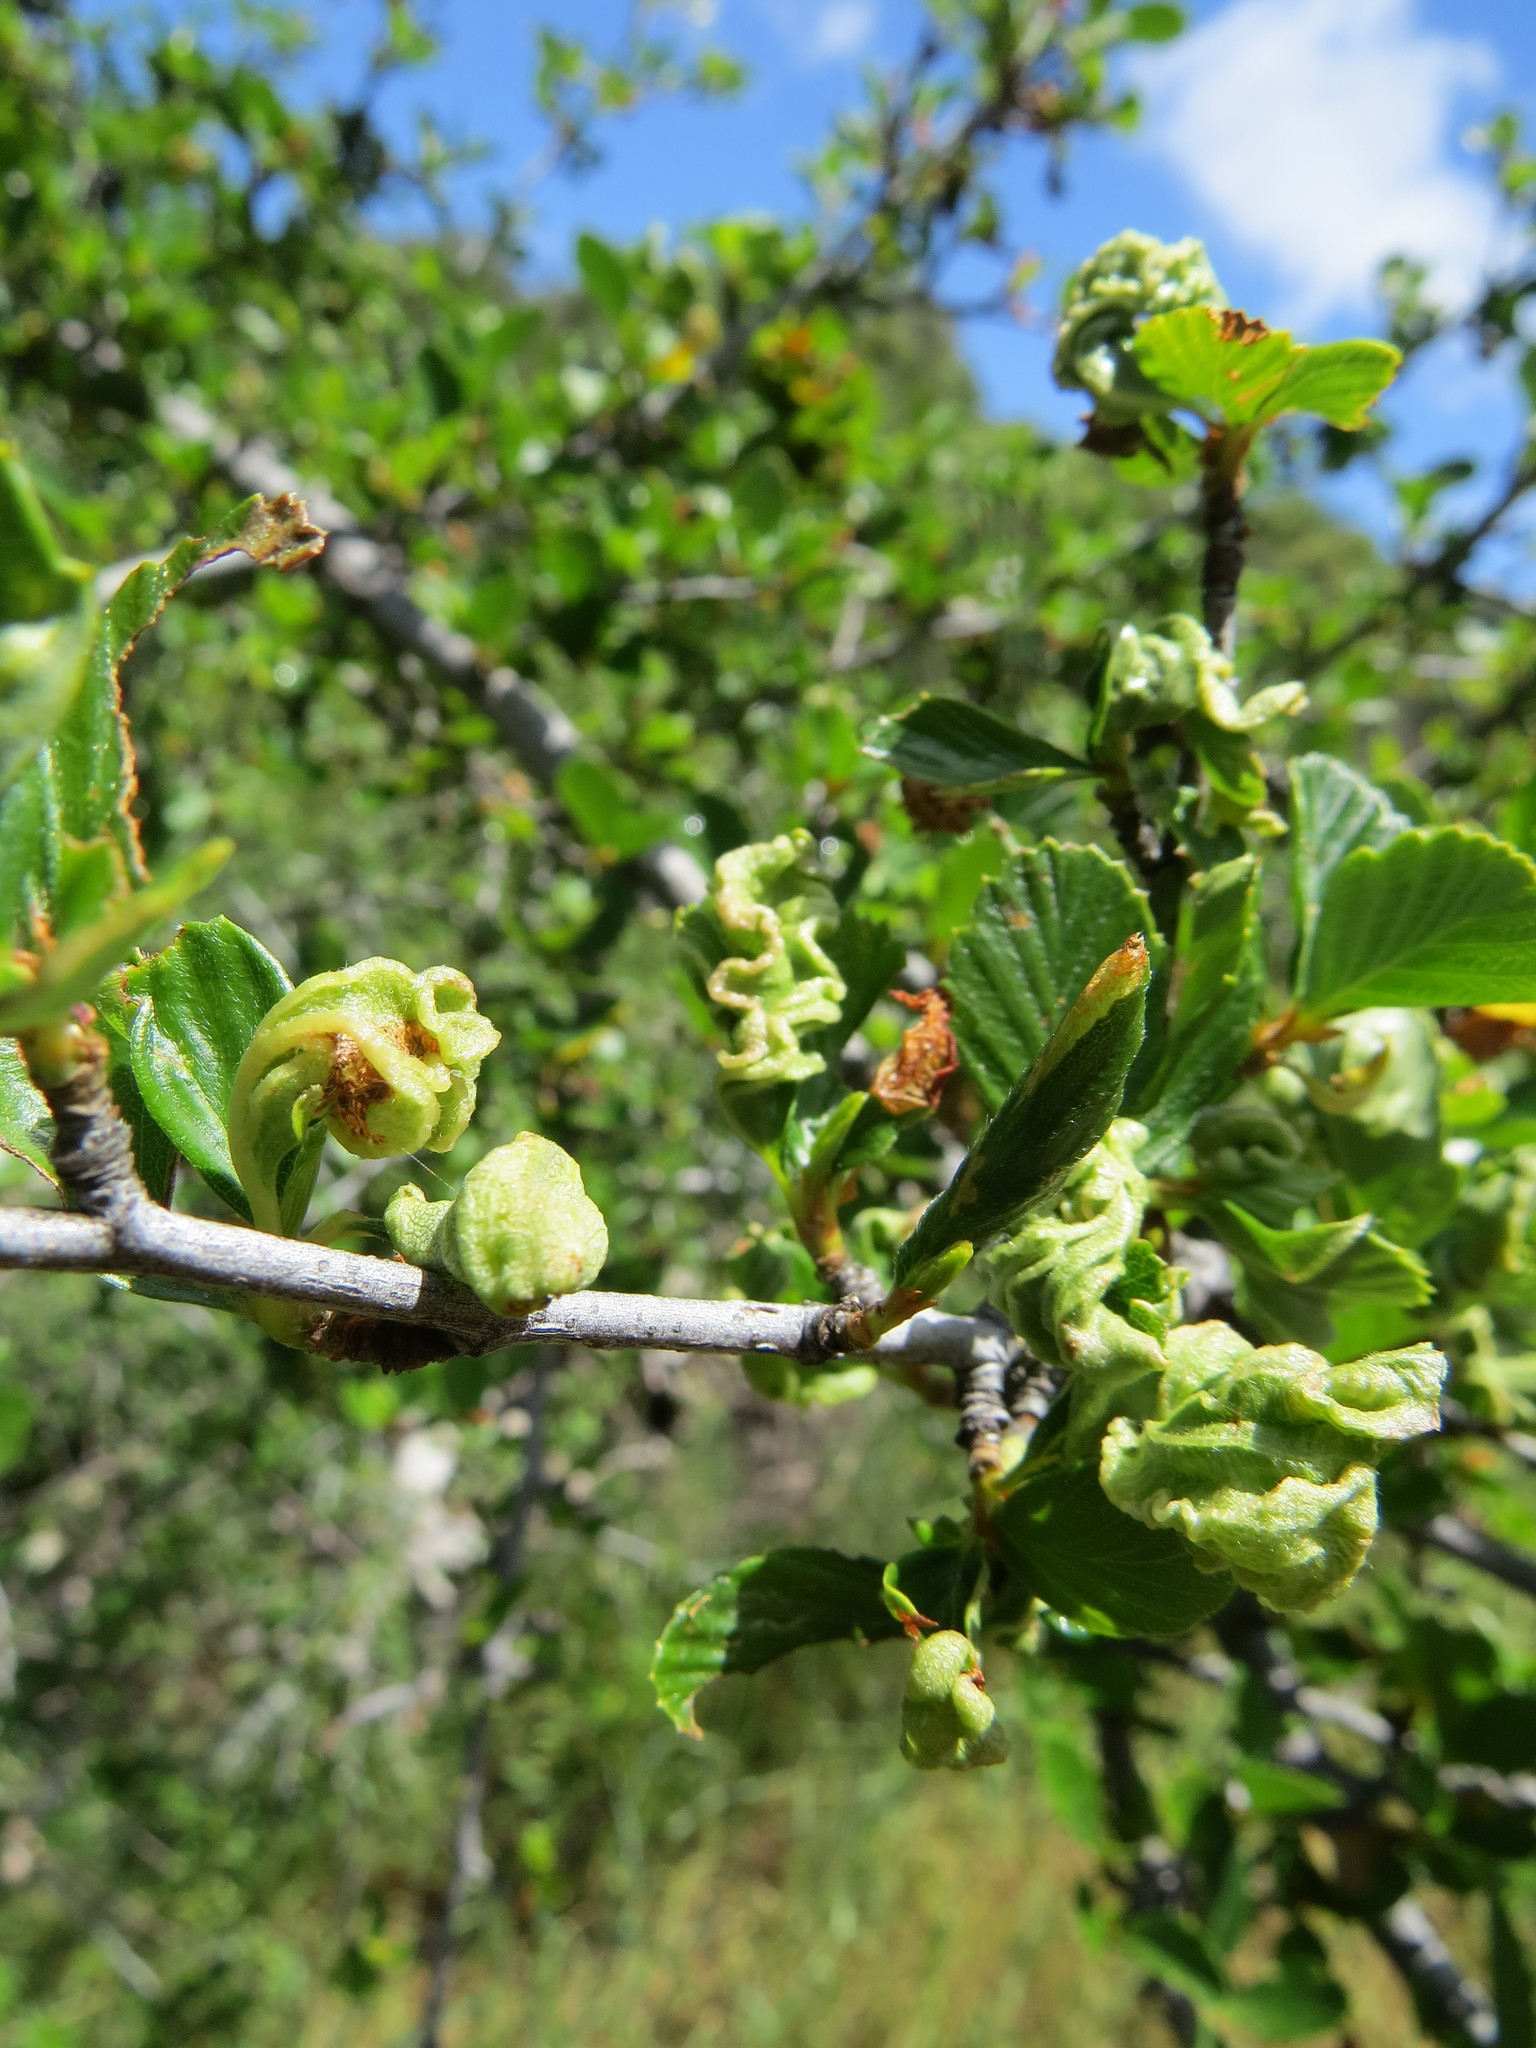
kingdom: Animalia
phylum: Arthropoda
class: Insecta
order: Hemiptera
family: Psyllidae
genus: Purshivora
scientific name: Purshivora
